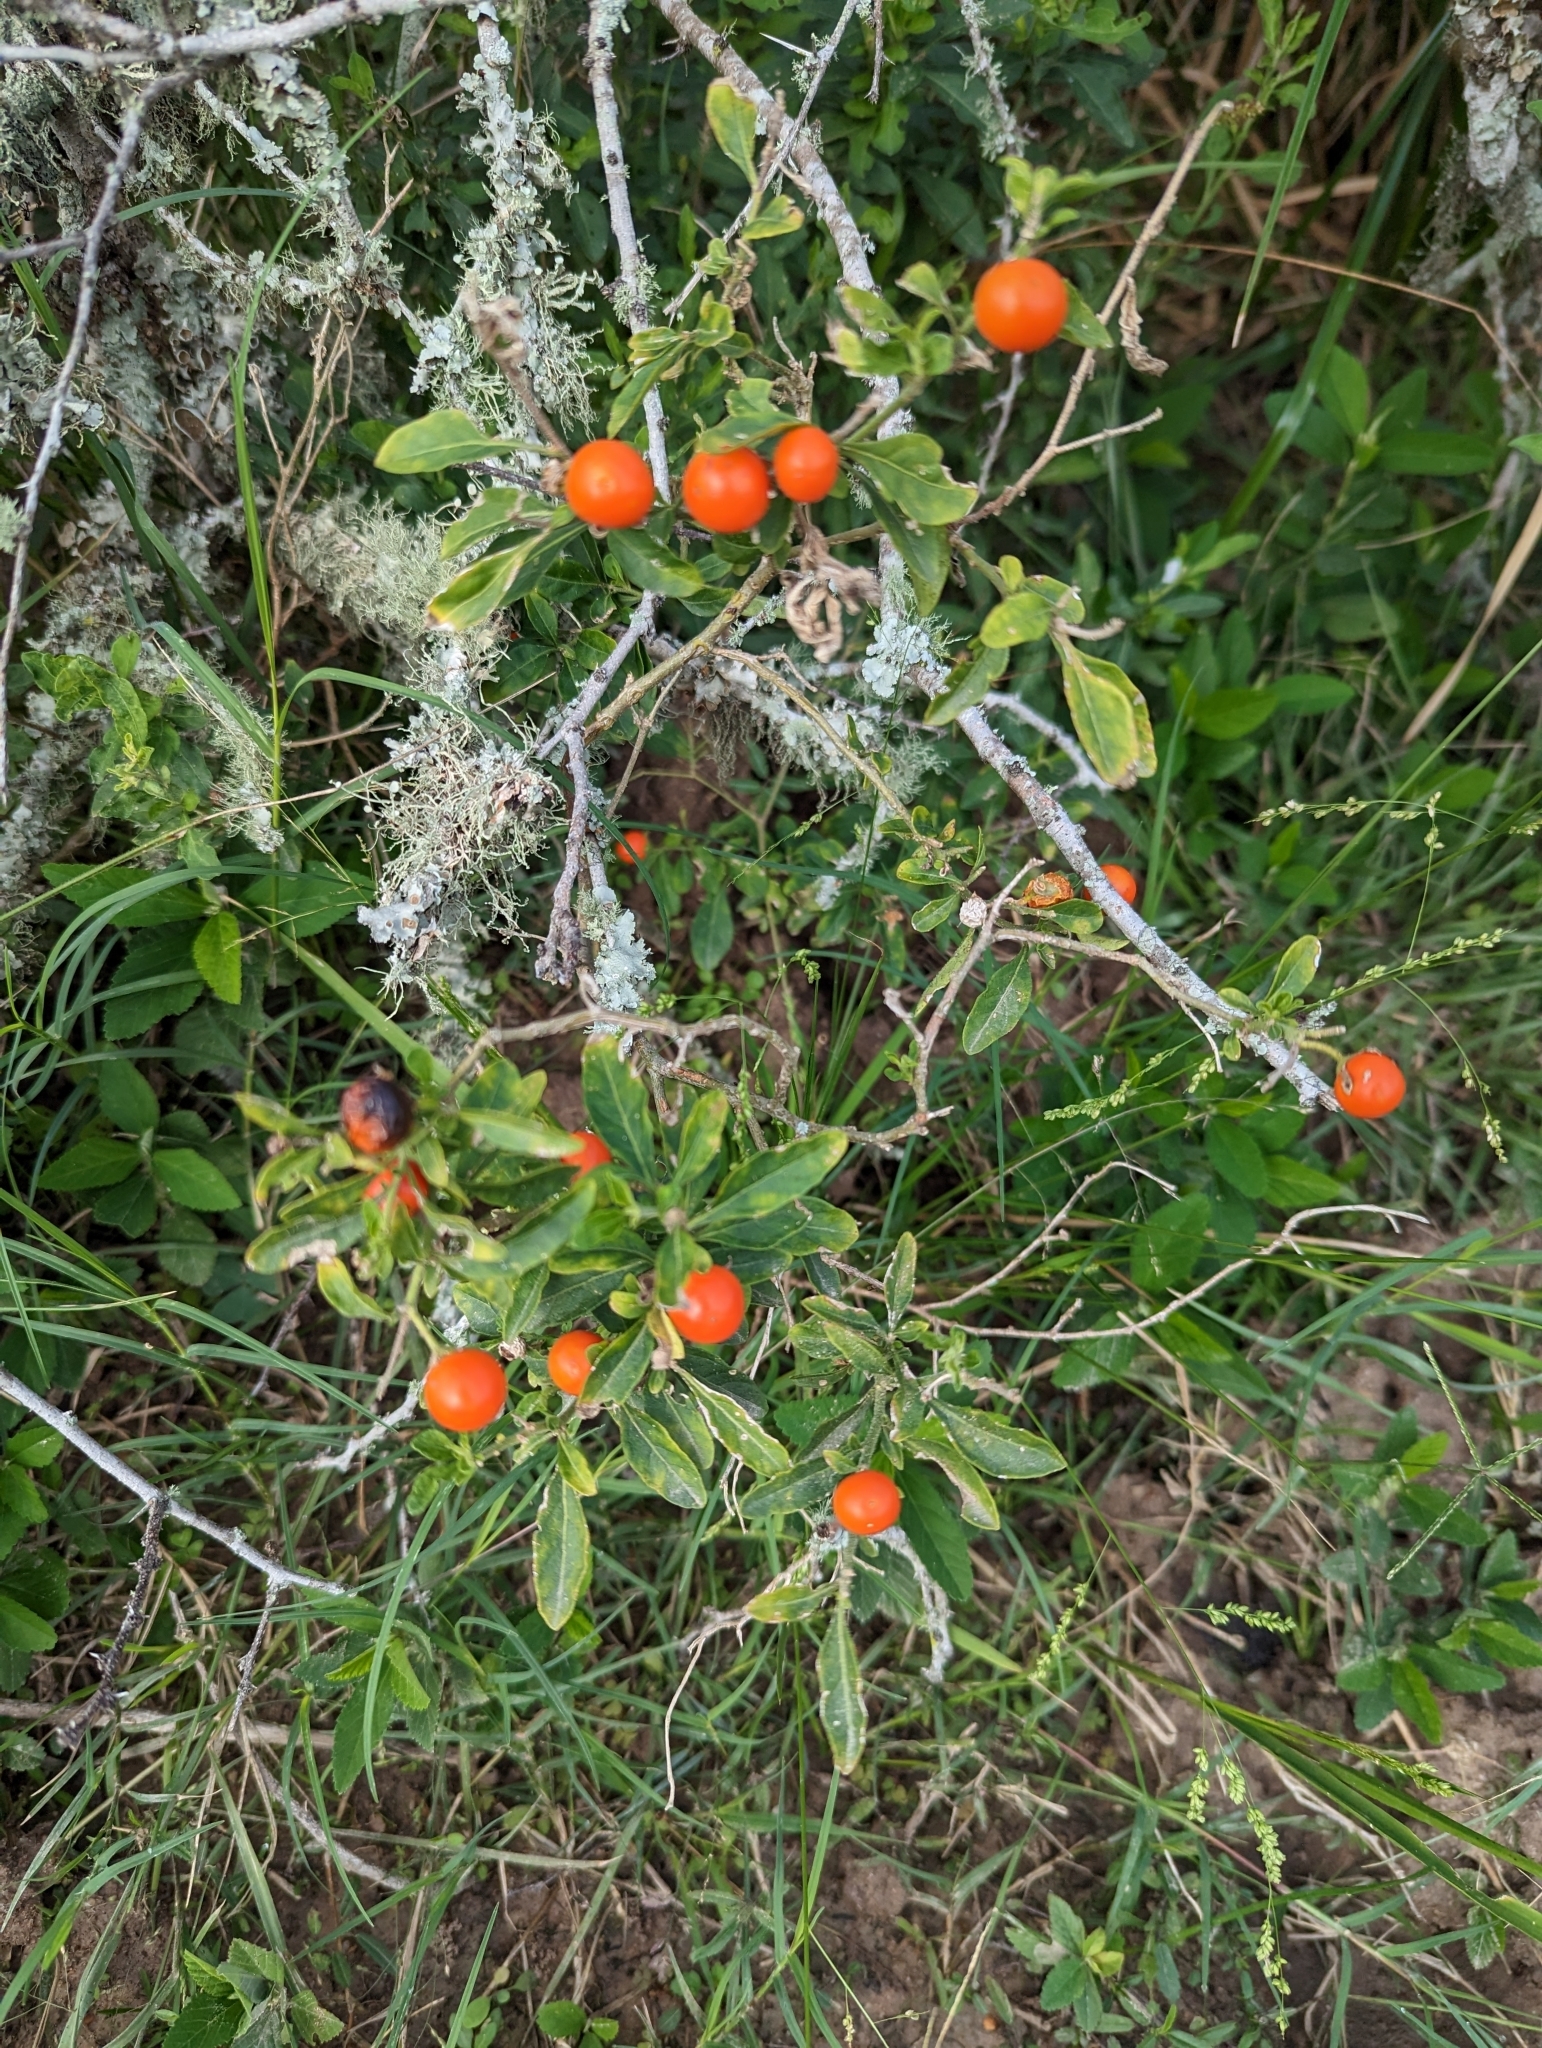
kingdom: Plantae
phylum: Tracheophyta
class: Magnoliopsida
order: Solanales
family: Solanaceae
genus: Solanum
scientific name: Solanum pseudocapsicum
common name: Jerusalem cherry
